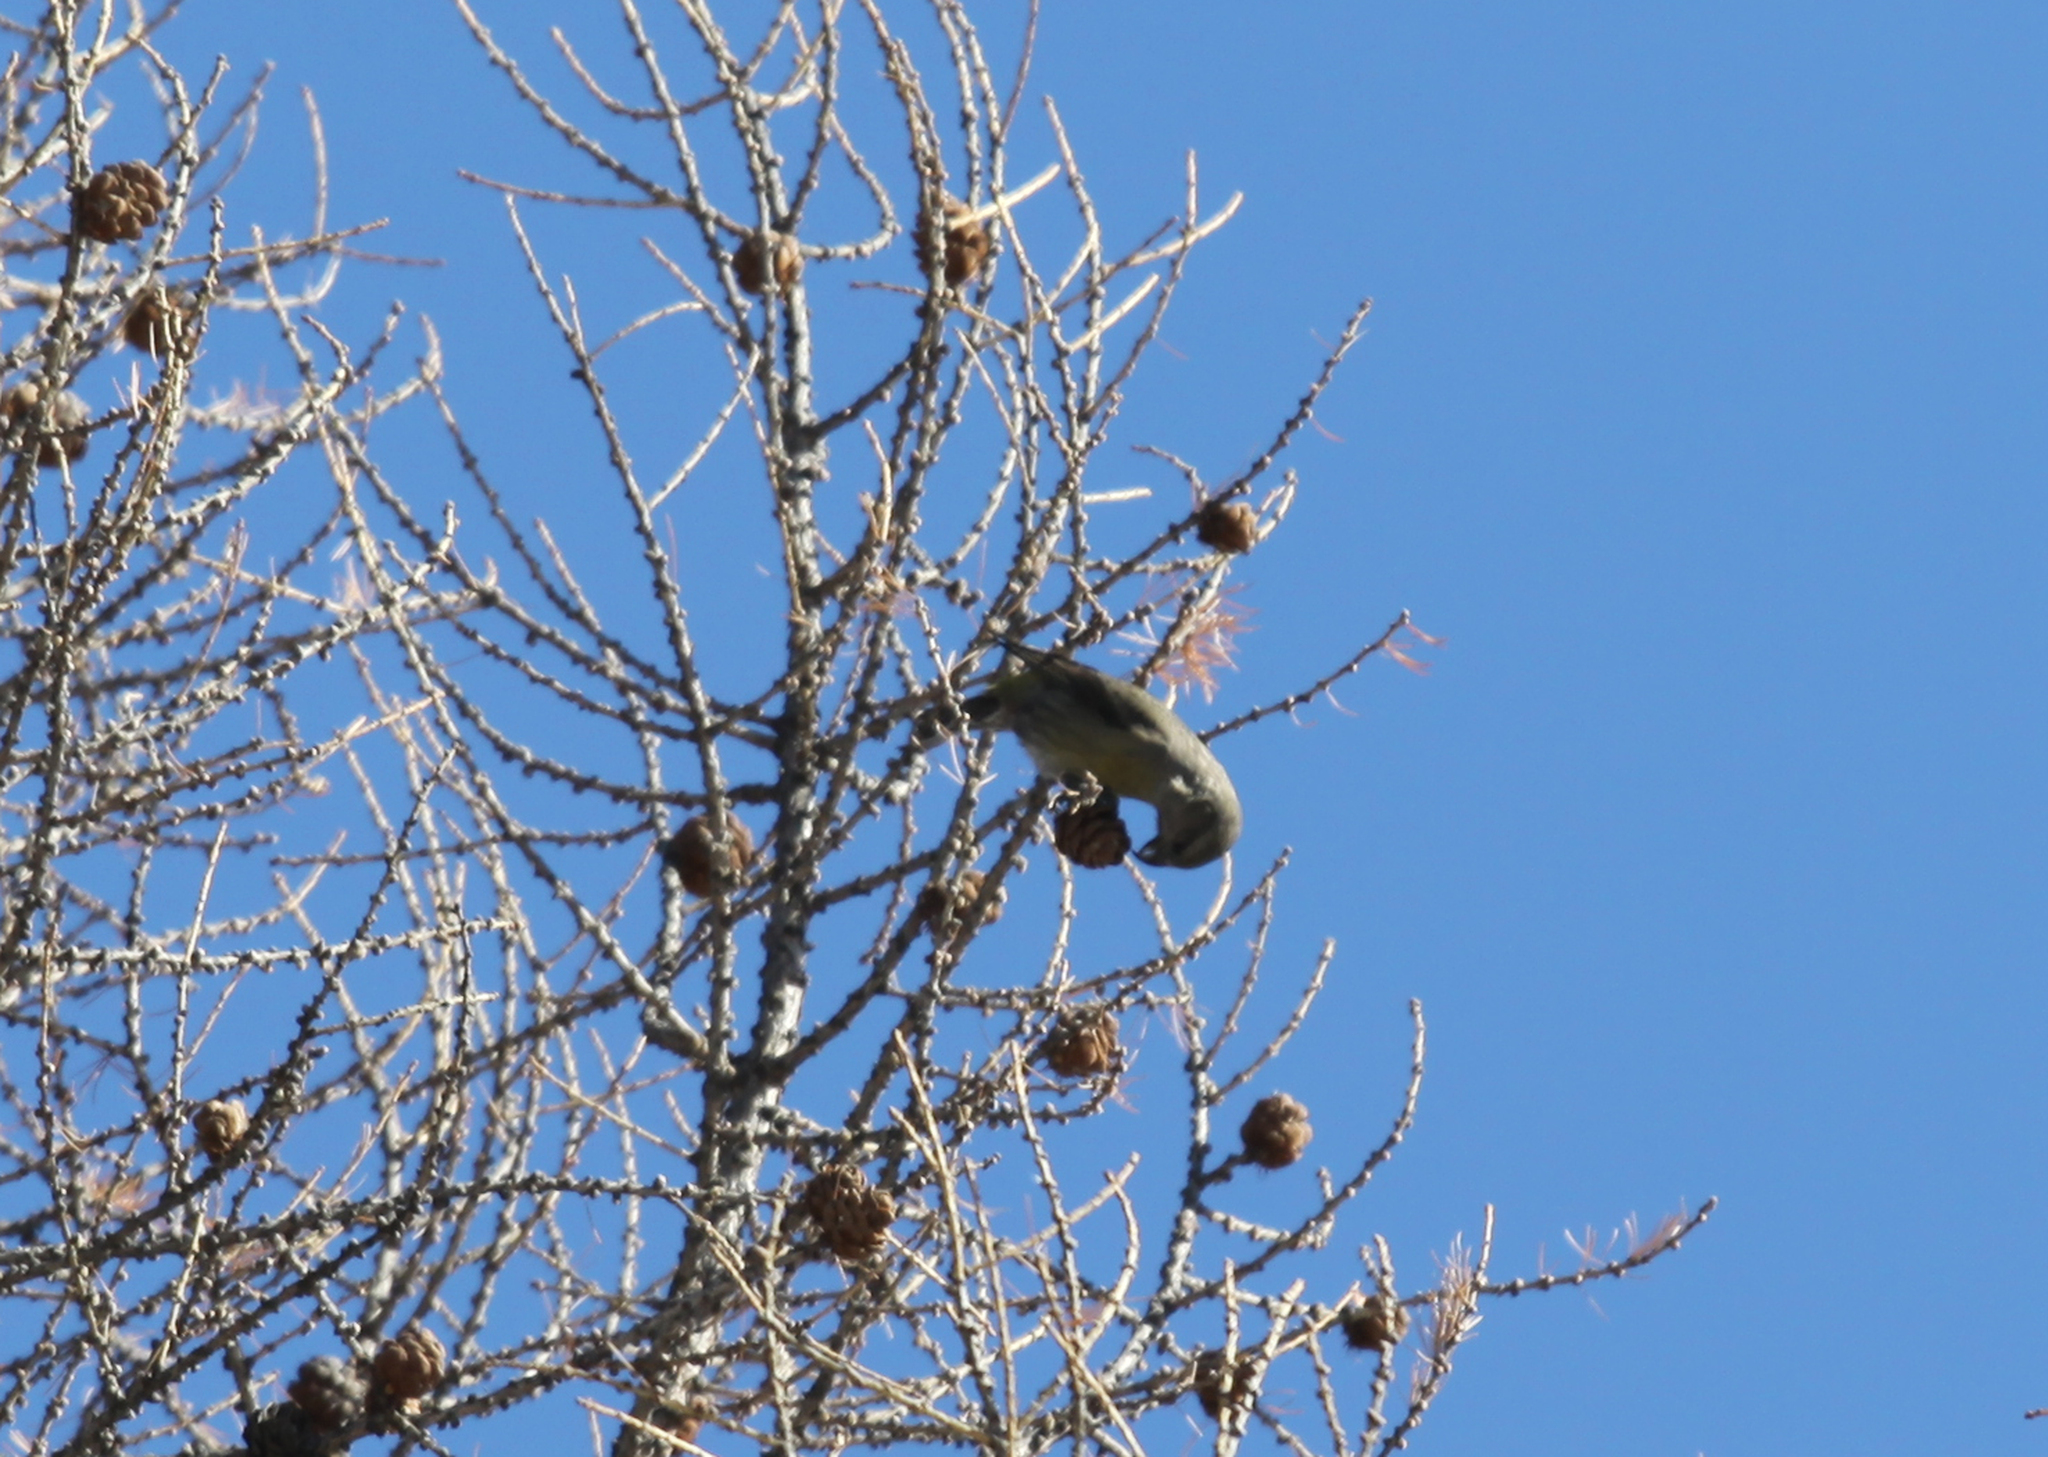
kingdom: Animalia
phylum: Chordata
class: Aves
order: Passeriformes
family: Fringillidae
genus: Loxia
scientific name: Loxia curvirostra
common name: Red crossbill
